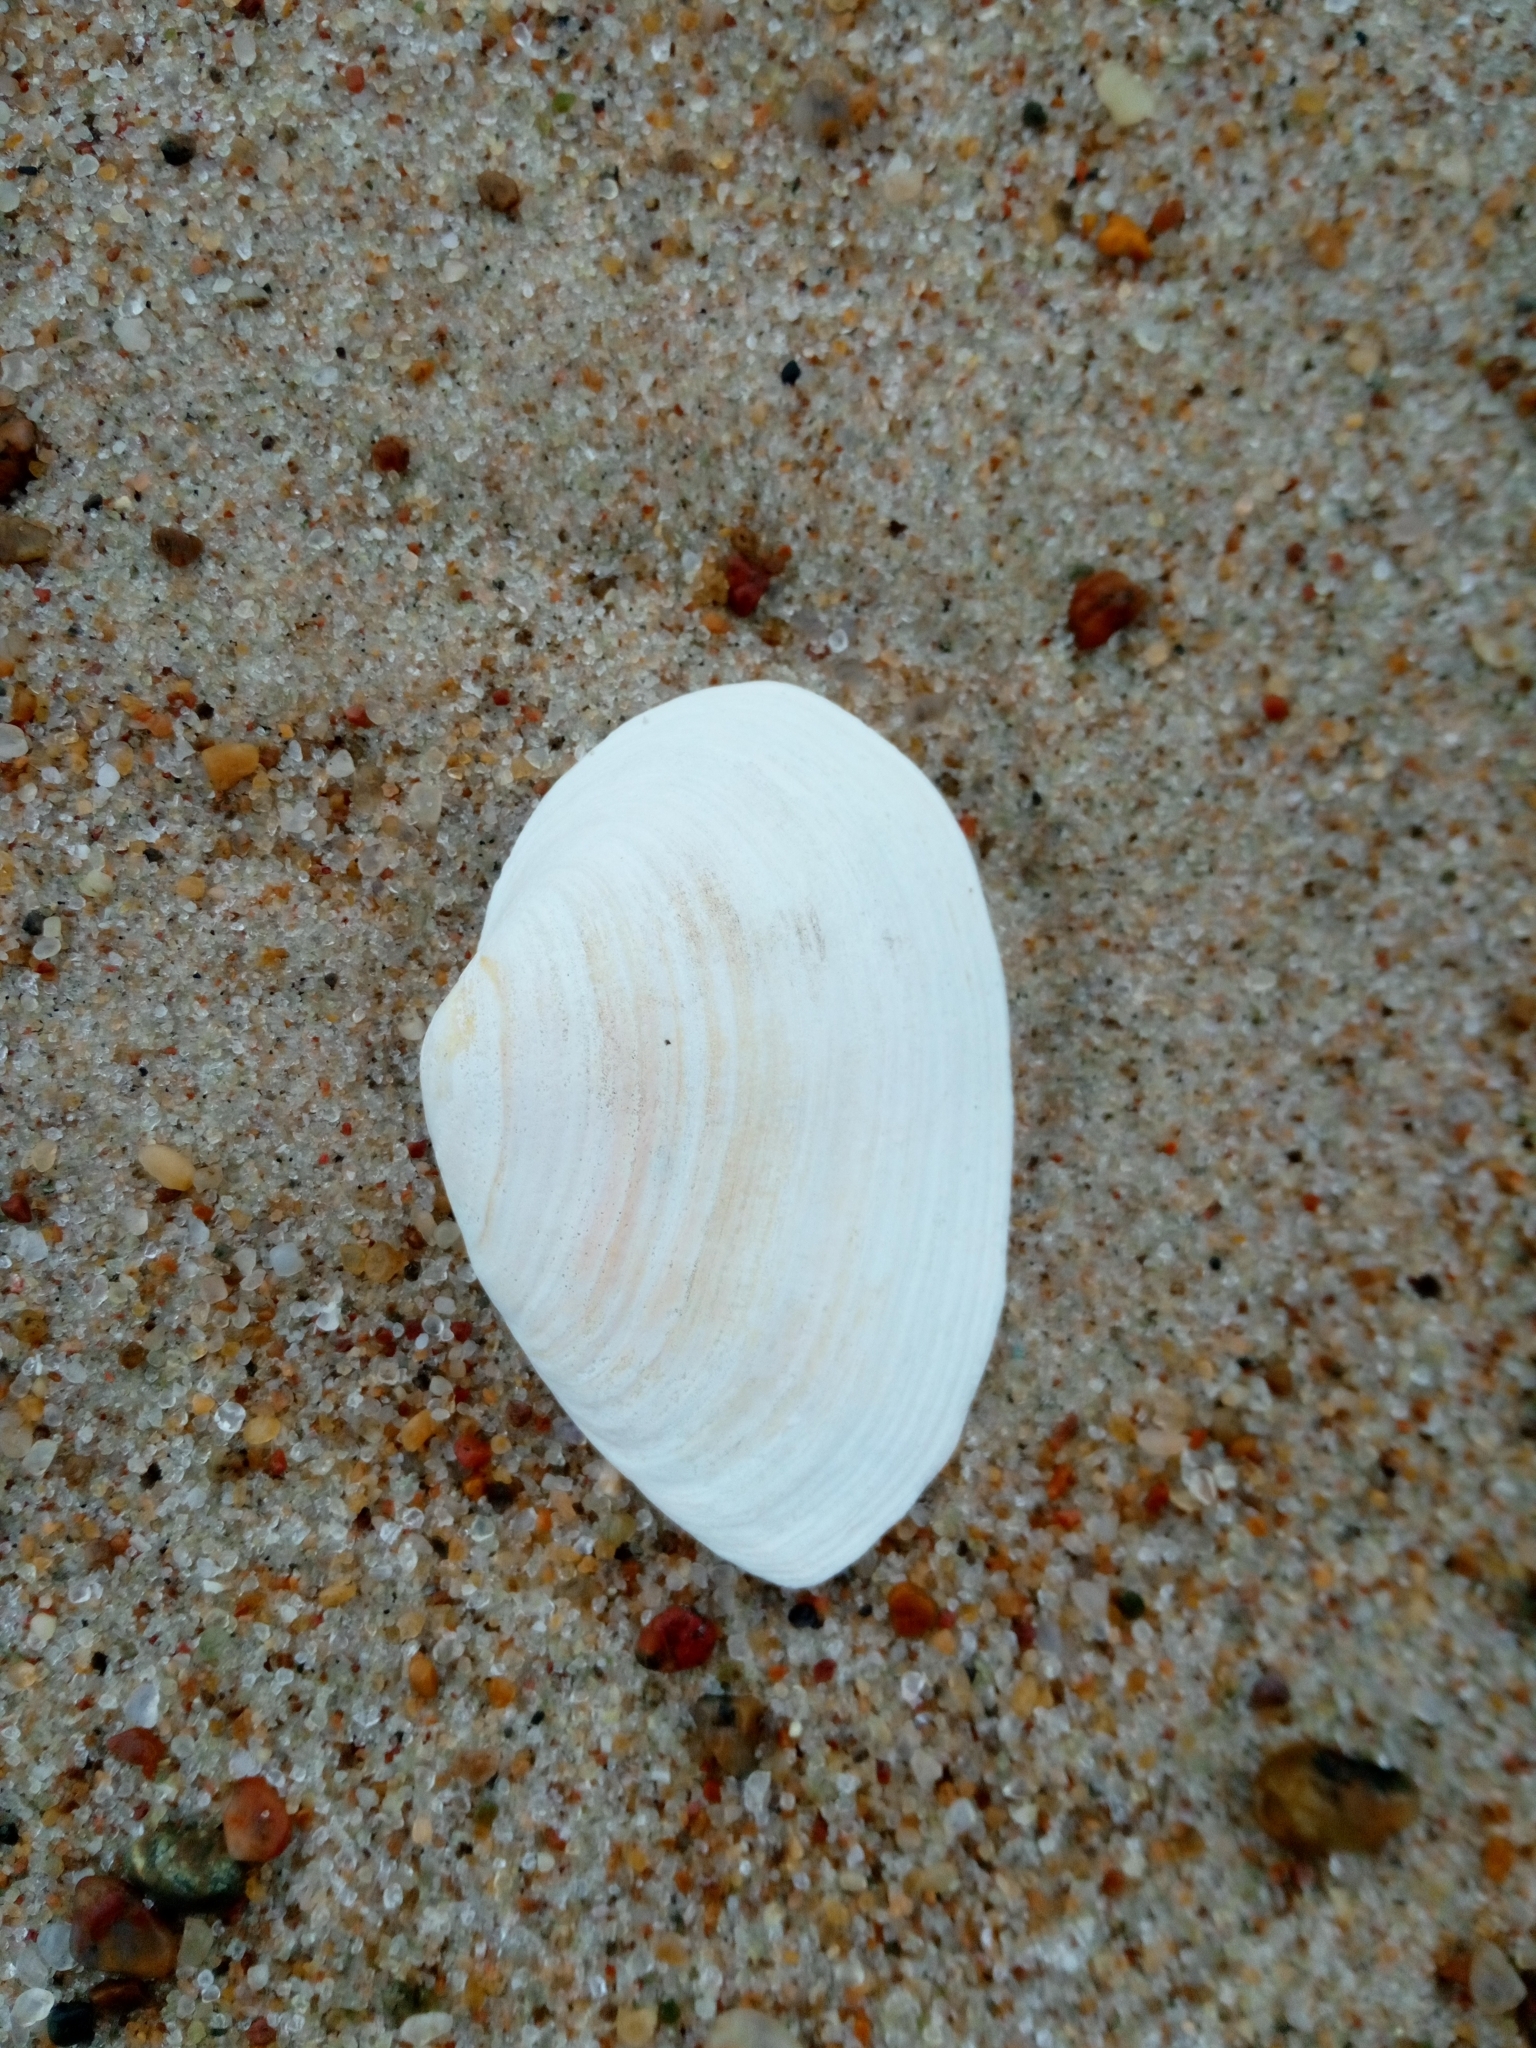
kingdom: Animalia
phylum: Mollusca
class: Bivalvia
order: Myida
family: Myidae
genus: Mya
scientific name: Mya arenaria
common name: Soft-shelled clam
